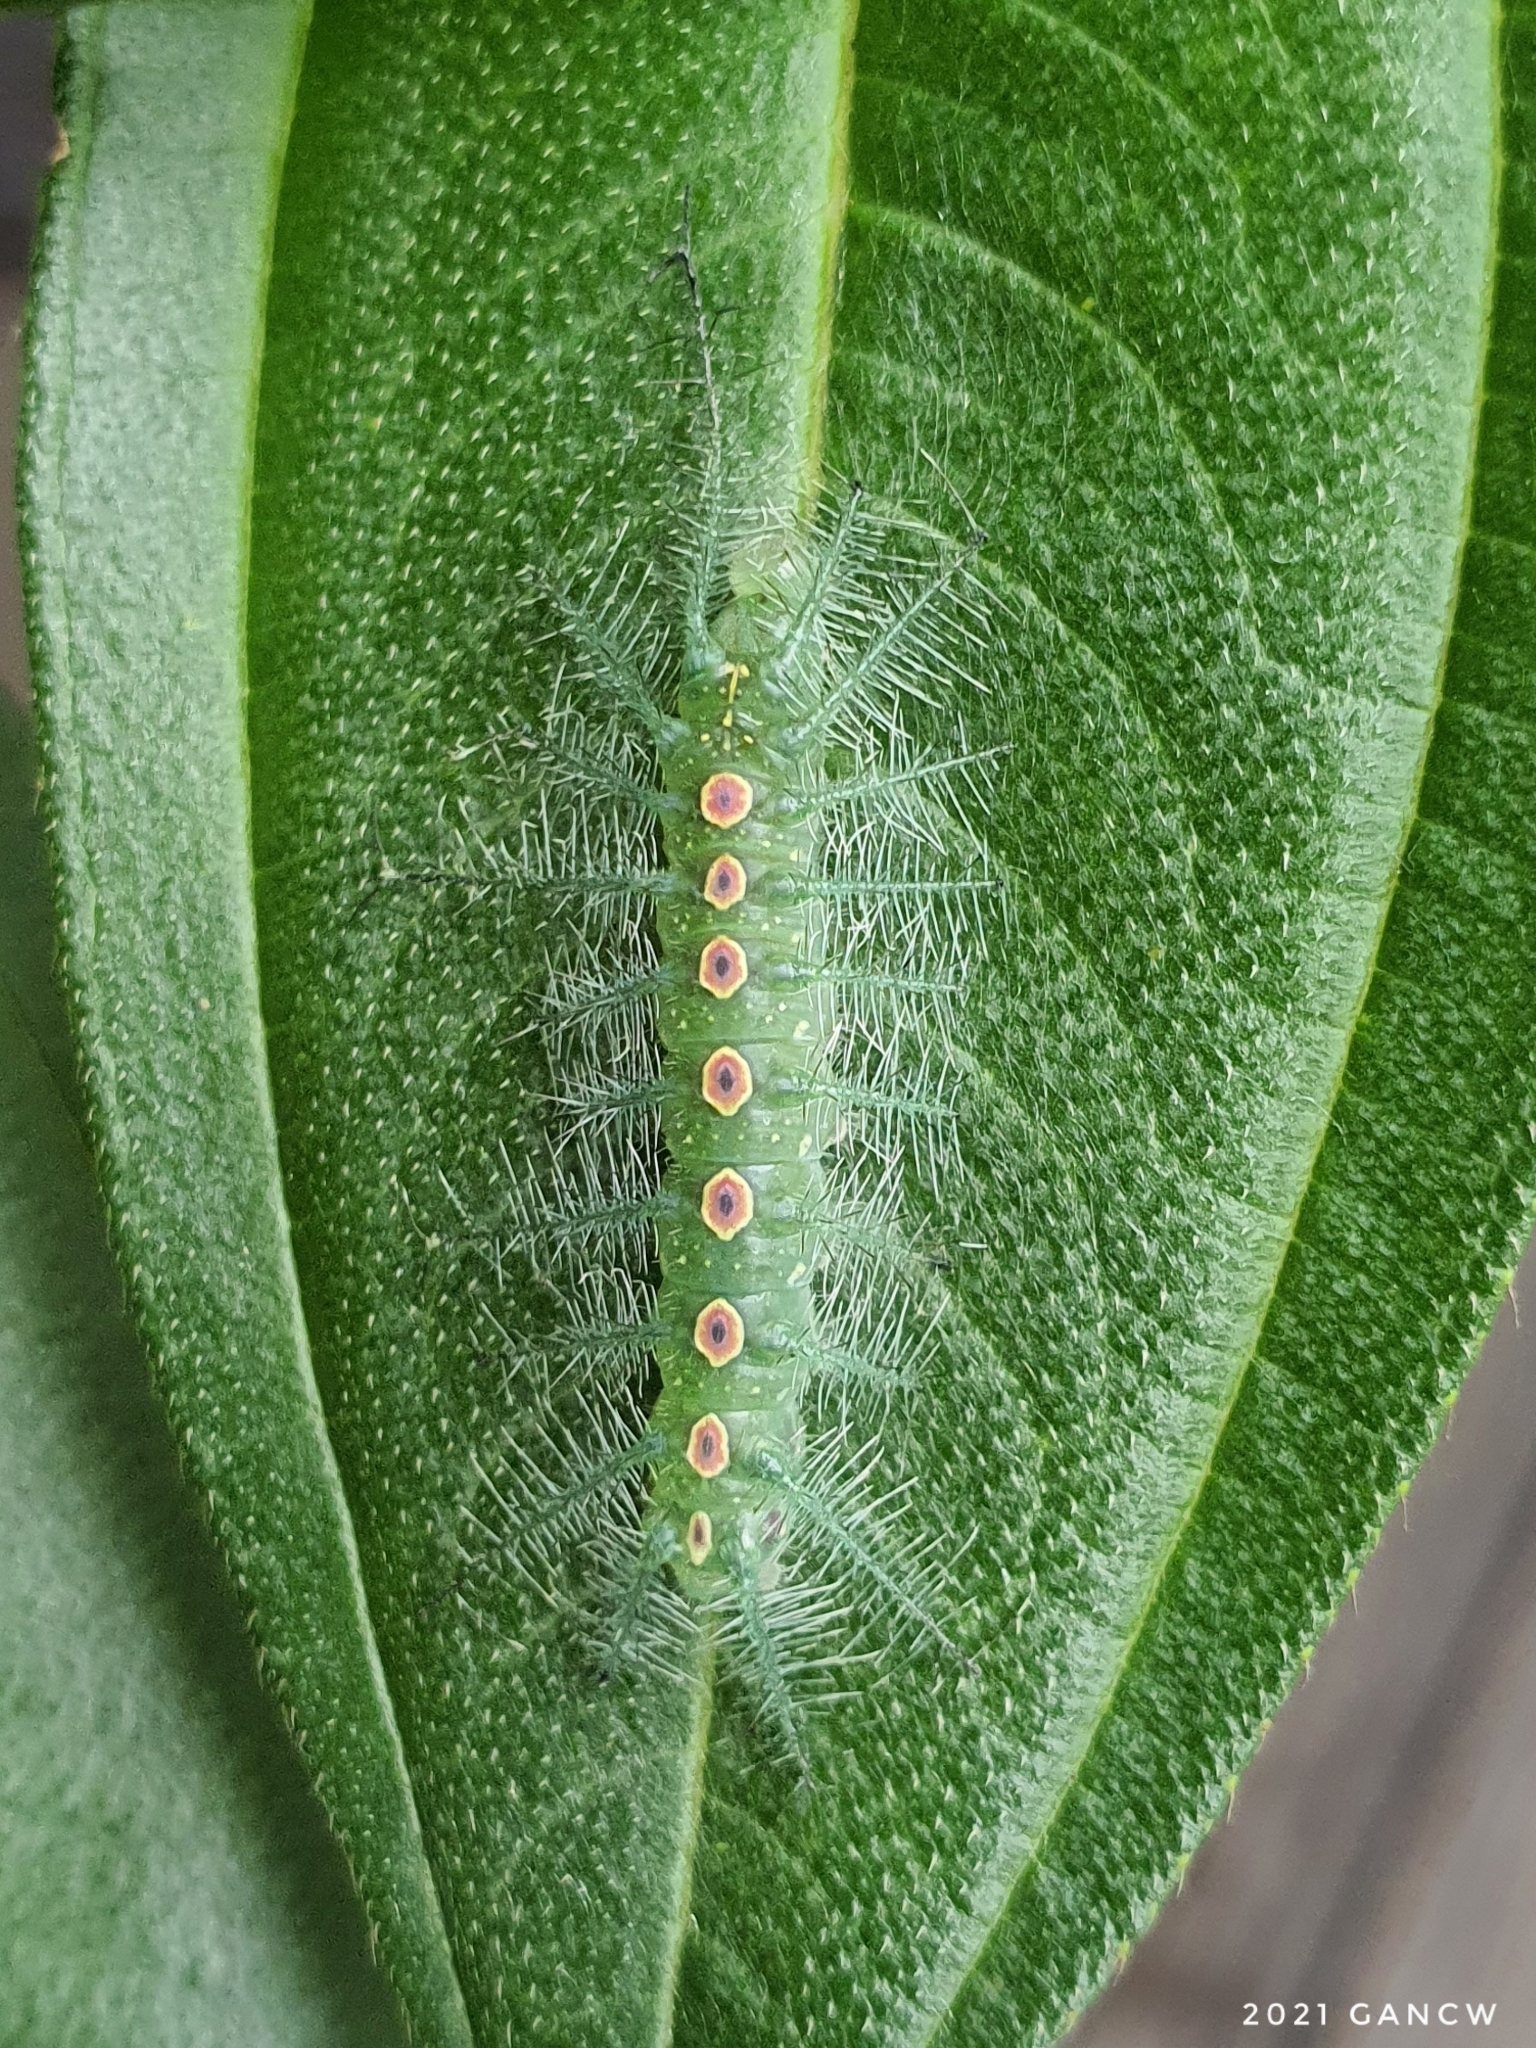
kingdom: Animalia
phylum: Arthropoda
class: Insecta
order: Lepidoptera
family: Nymphalidae
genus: Tanaecia
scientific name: Tanaecia iapis
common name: Horsfield's baron
